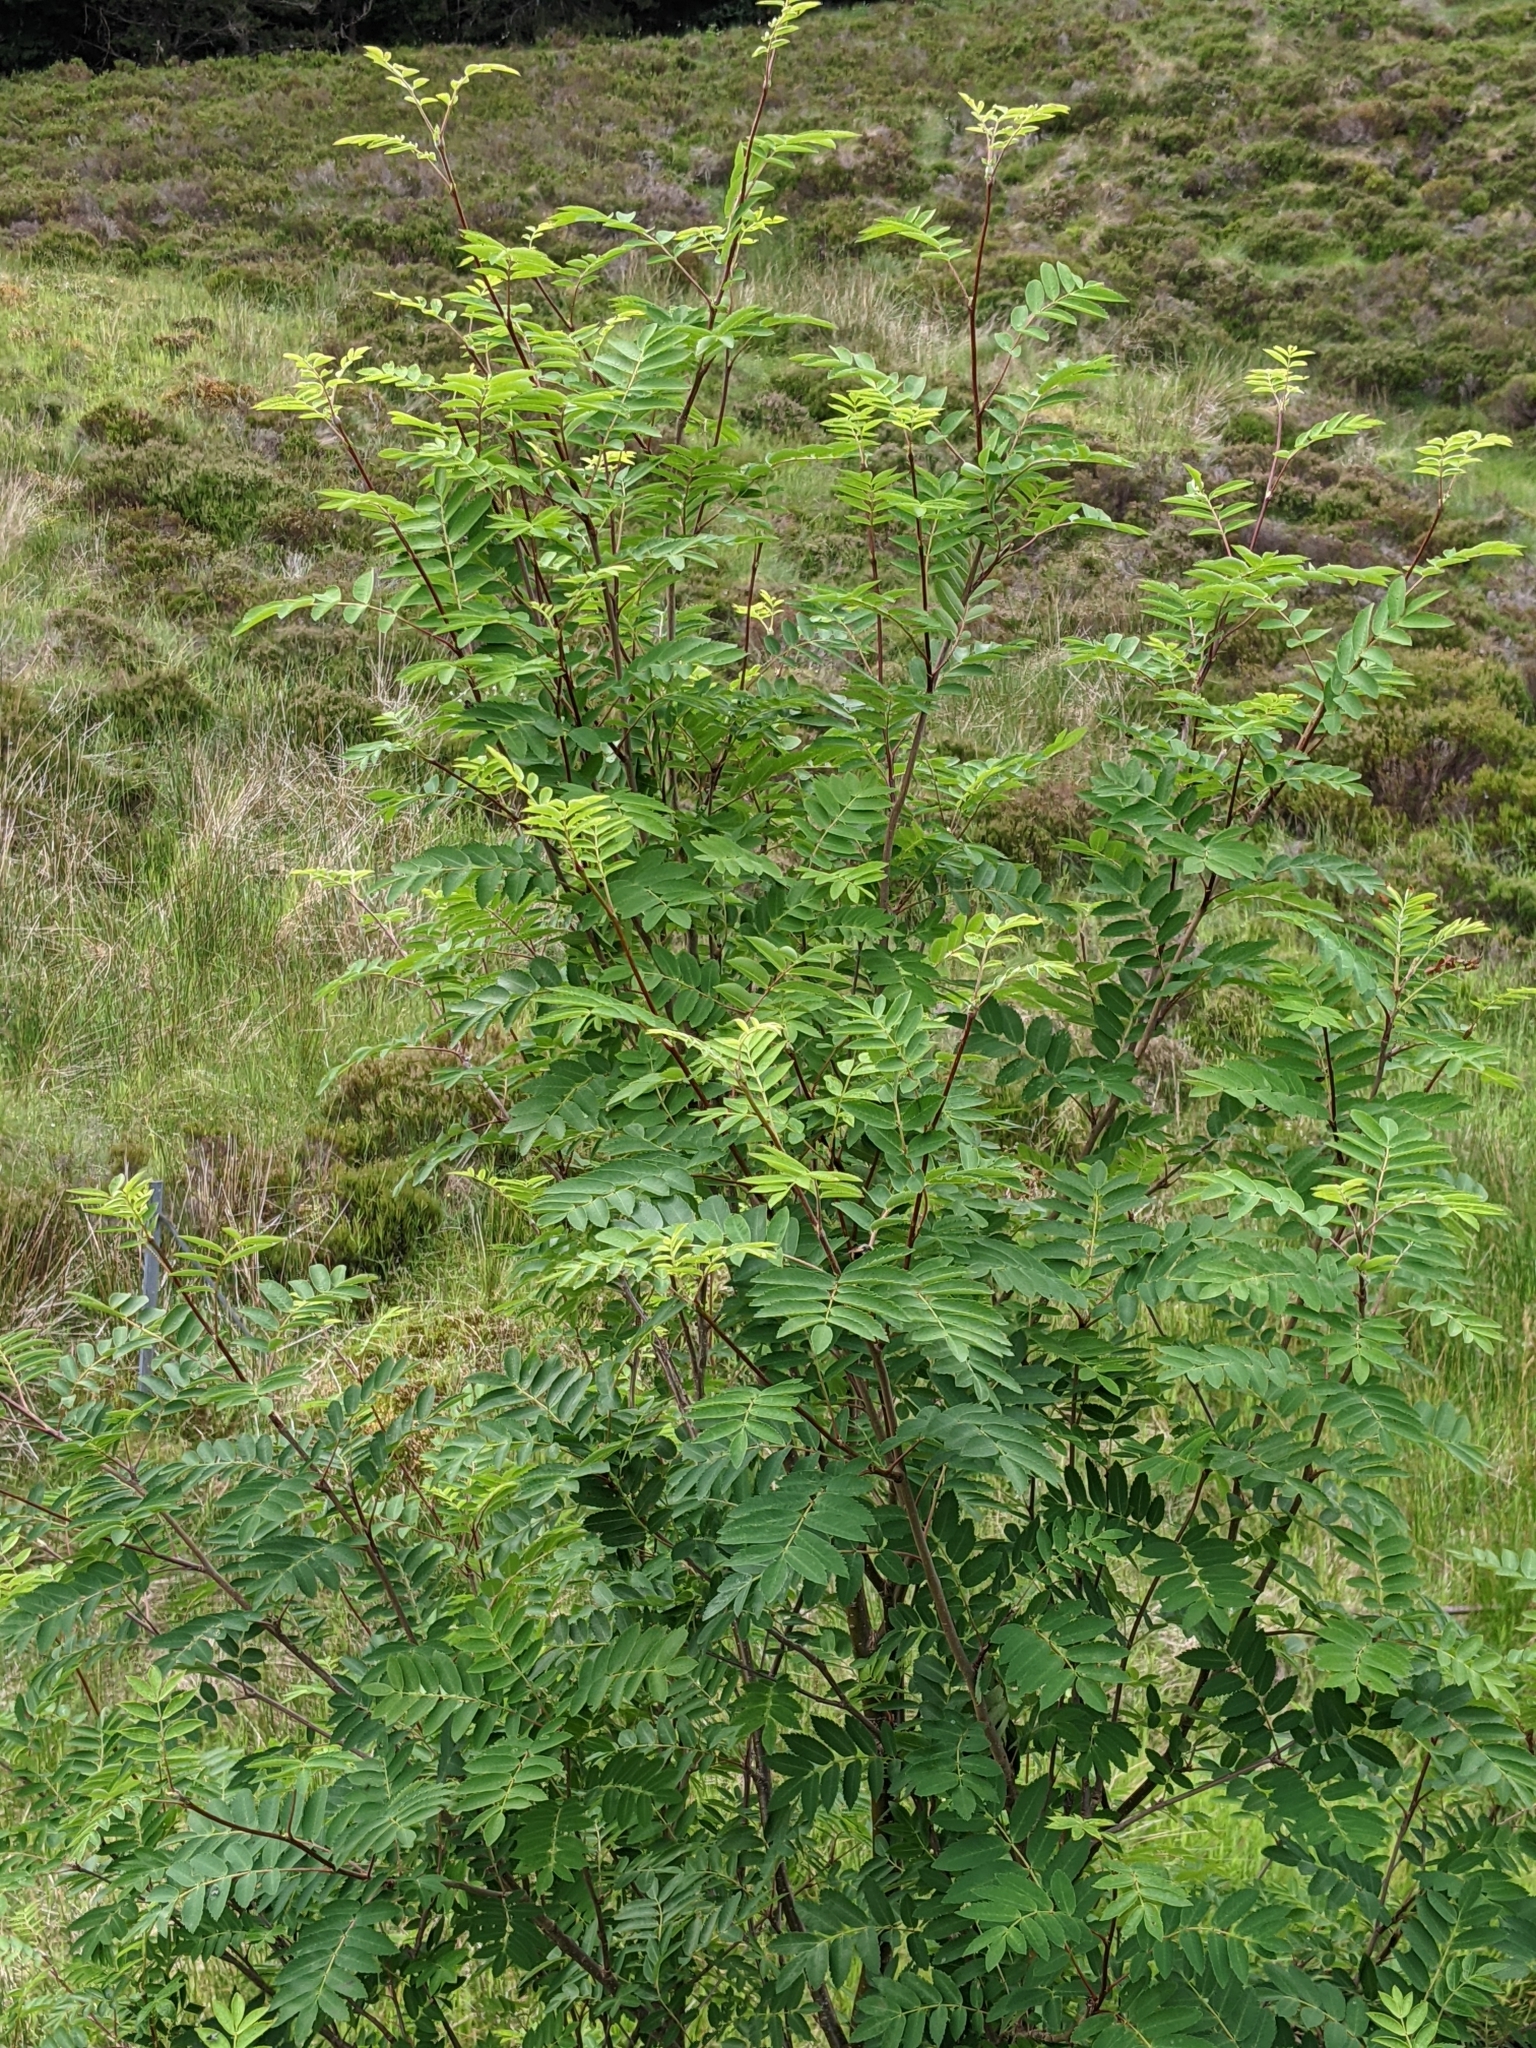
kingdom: Plantae
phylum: Tracheophyta
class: Magnoliopsida
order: Rosales
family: Rosaceae
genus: Sorbus
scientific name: Sorbus aucuparia
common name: Rowan
